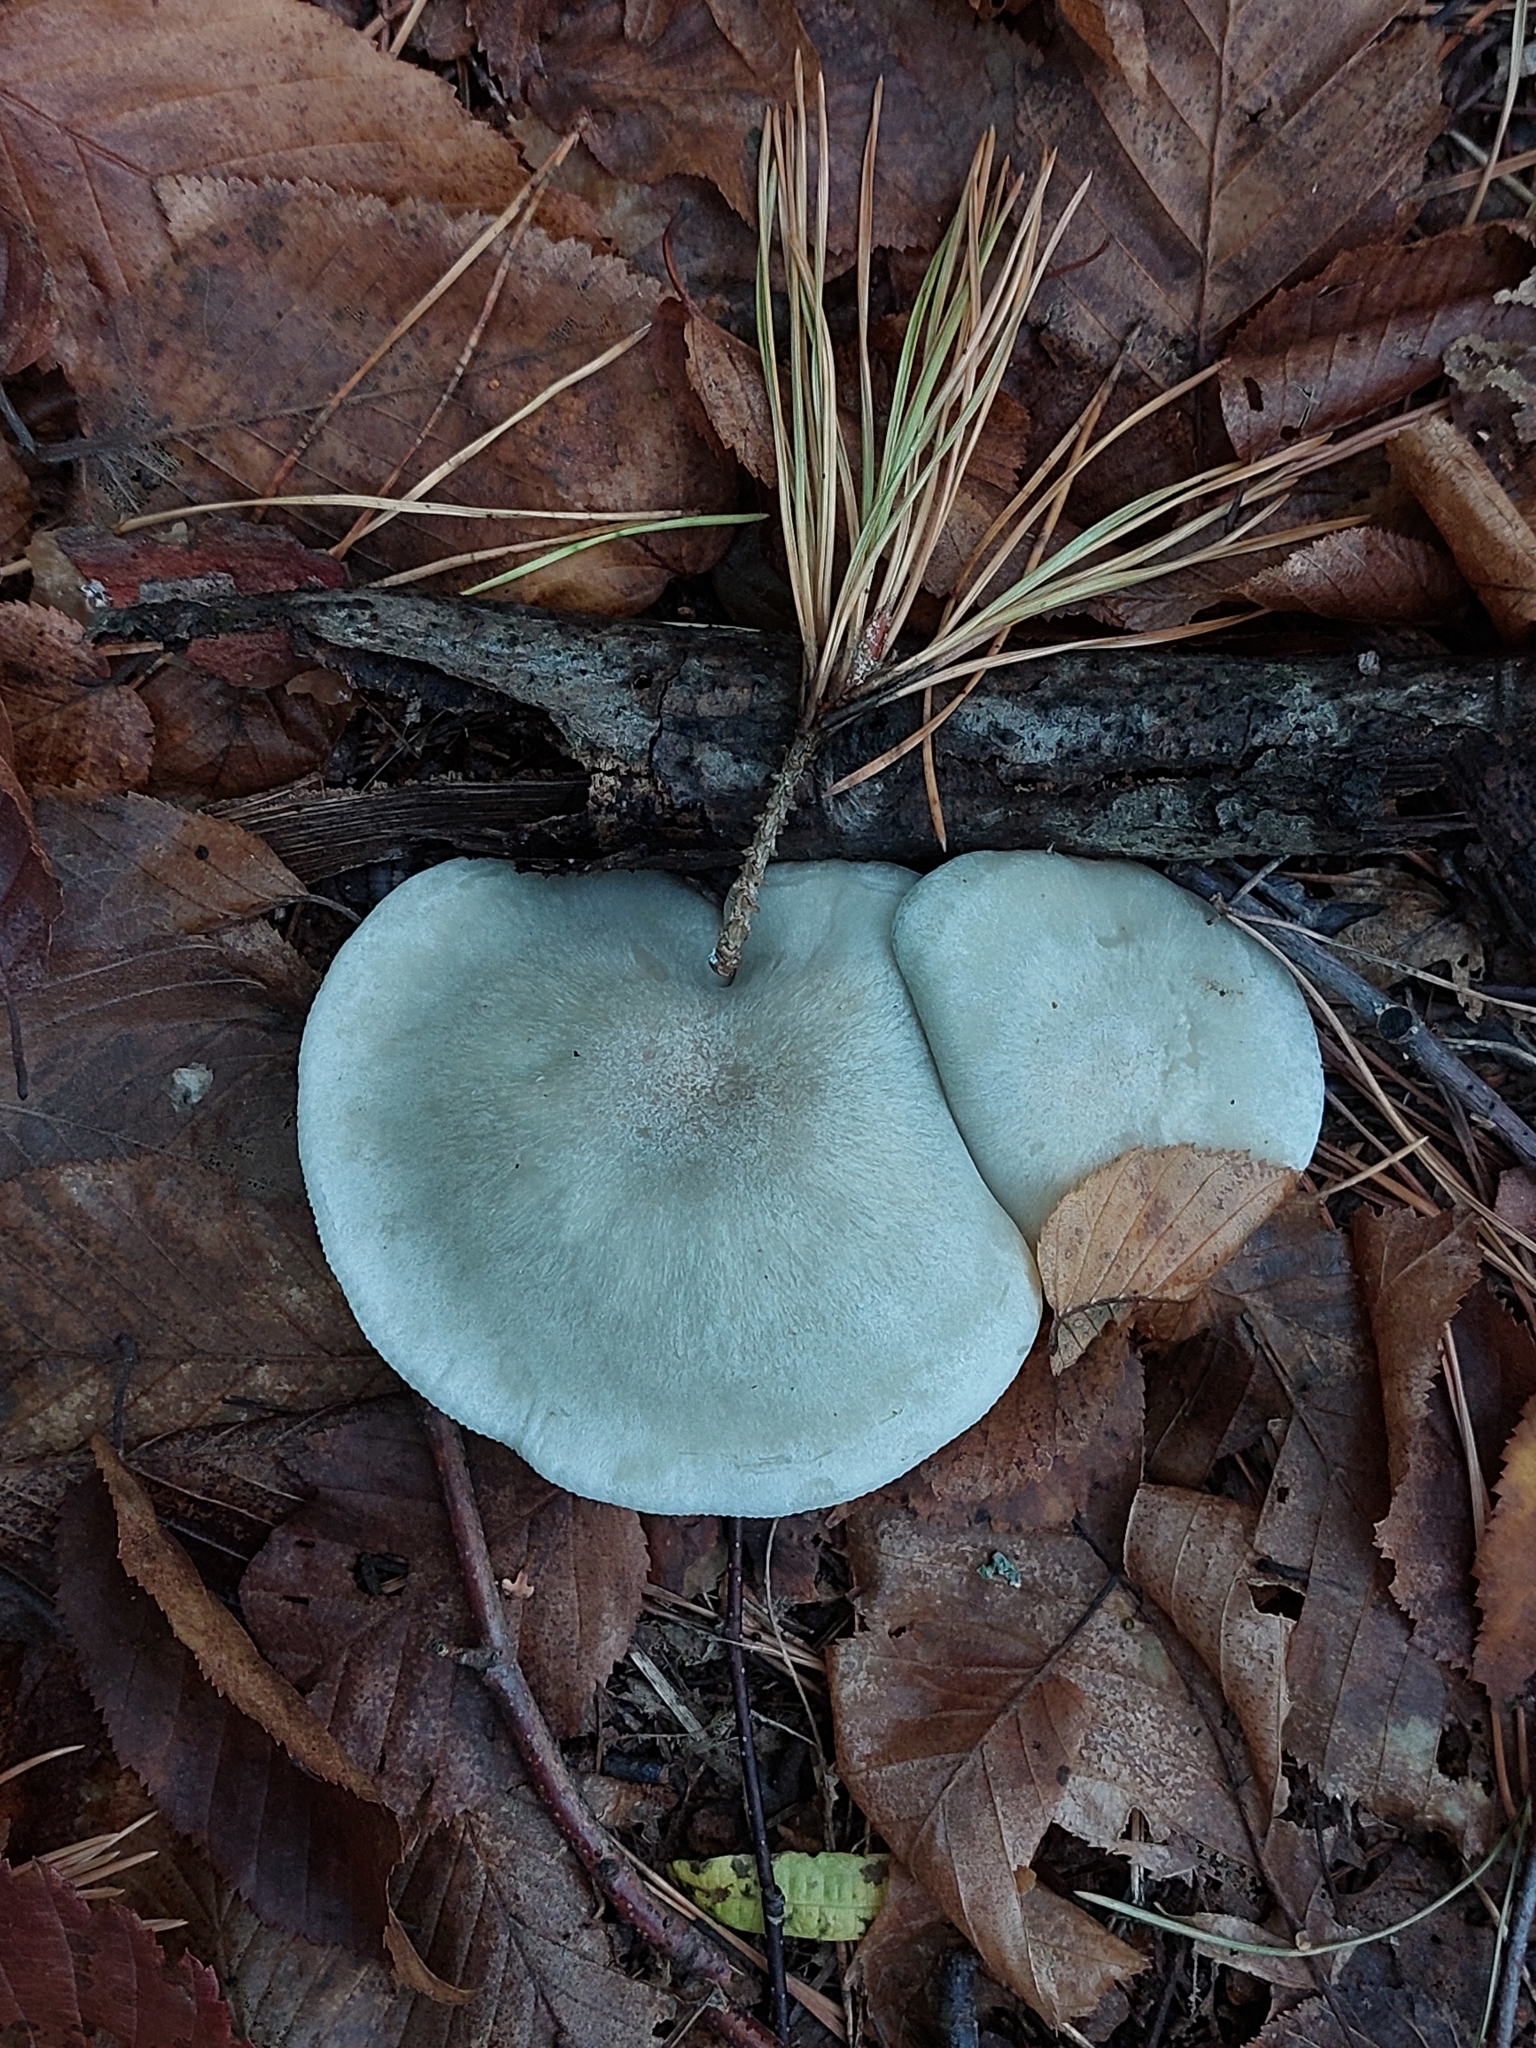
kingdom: Fungi
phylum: Basidiomycota
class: Agaricomycetes
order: Agaricales
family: Tricholomataceae
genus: Collybia
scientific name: Collybia
